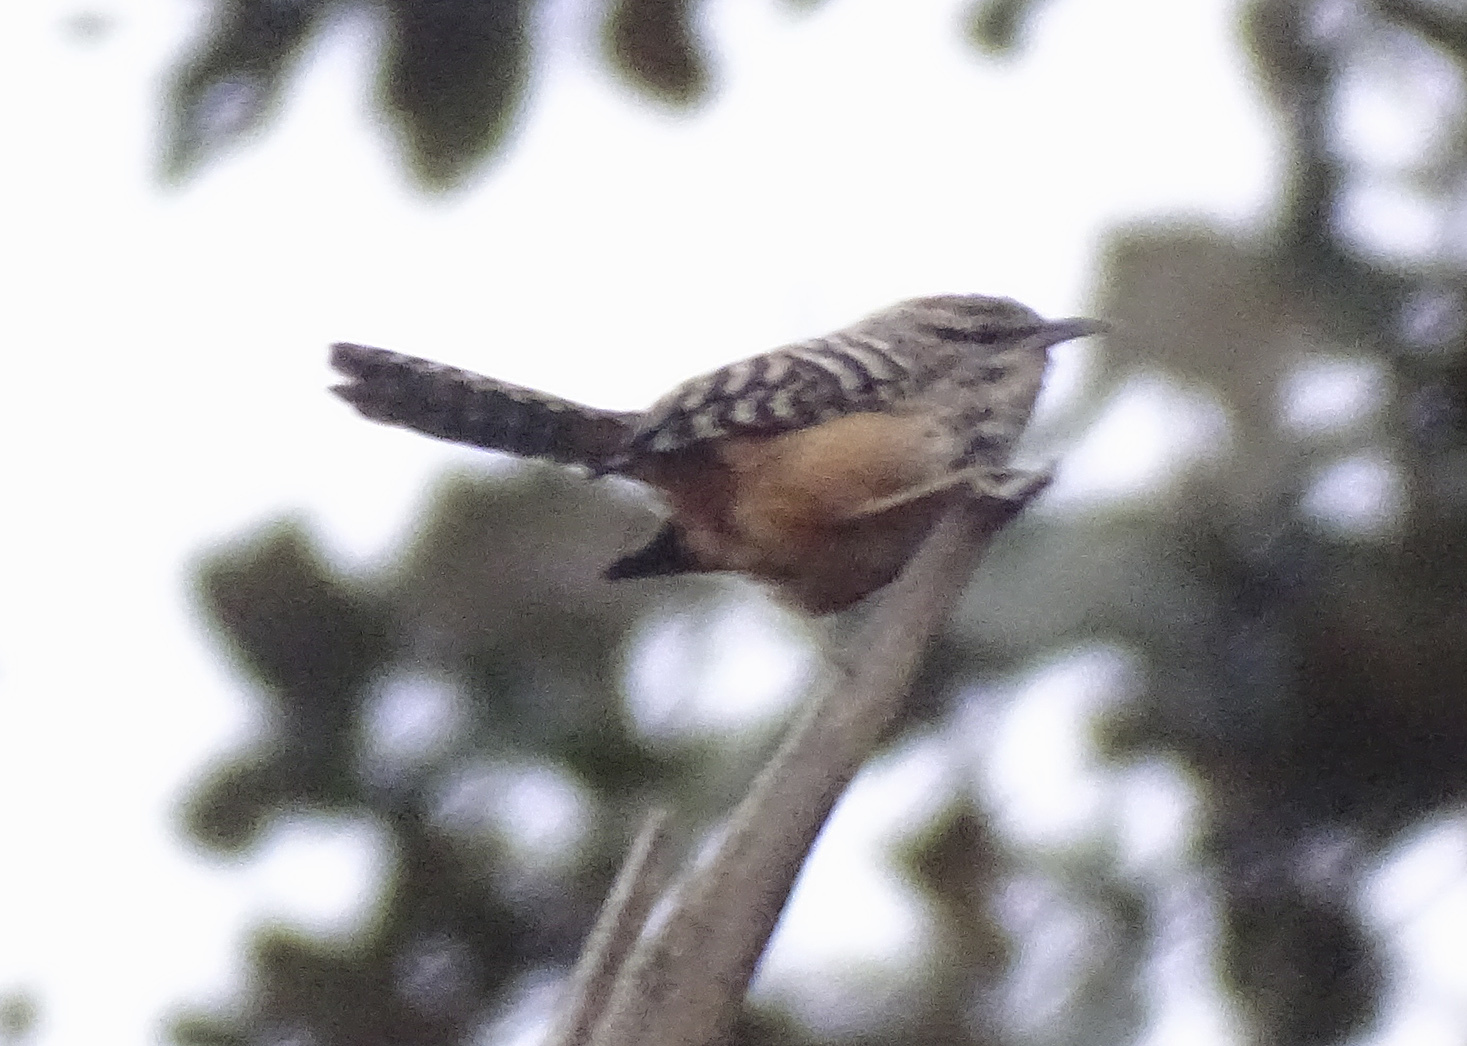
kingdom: Animalia
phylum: Chordata
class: Aves
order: Passeriformes
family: Troglodytidae
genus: Campylorhynchus
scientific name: Campylorhynchus zonatus
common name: Band-backed wren
